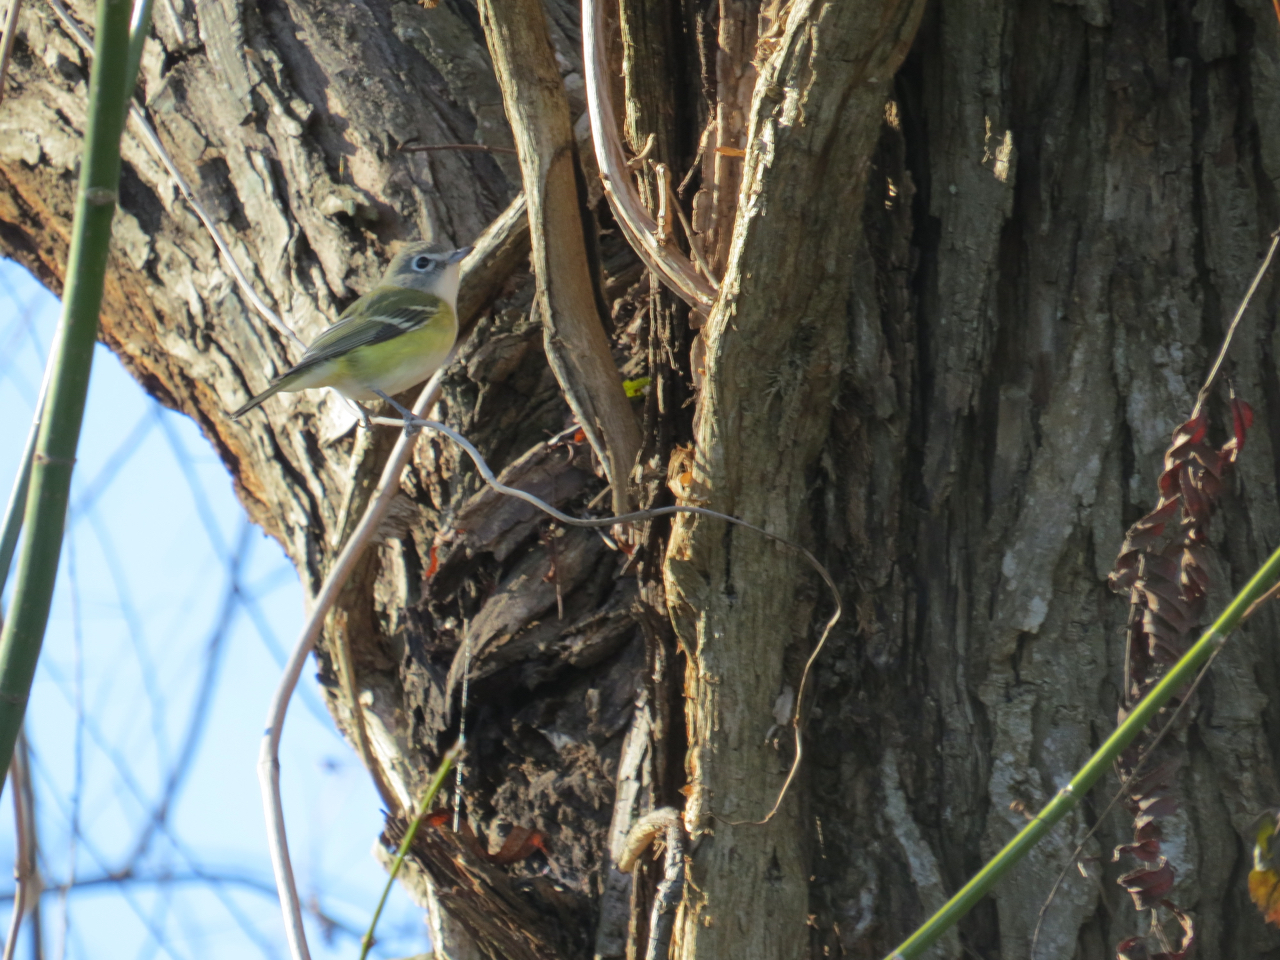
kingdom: Animalia
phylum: Chordata
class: Aves
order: Passeriformes
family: Vireonidae
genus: Vireo
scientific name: Vireo solitarius
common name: Blue-headed vireo
